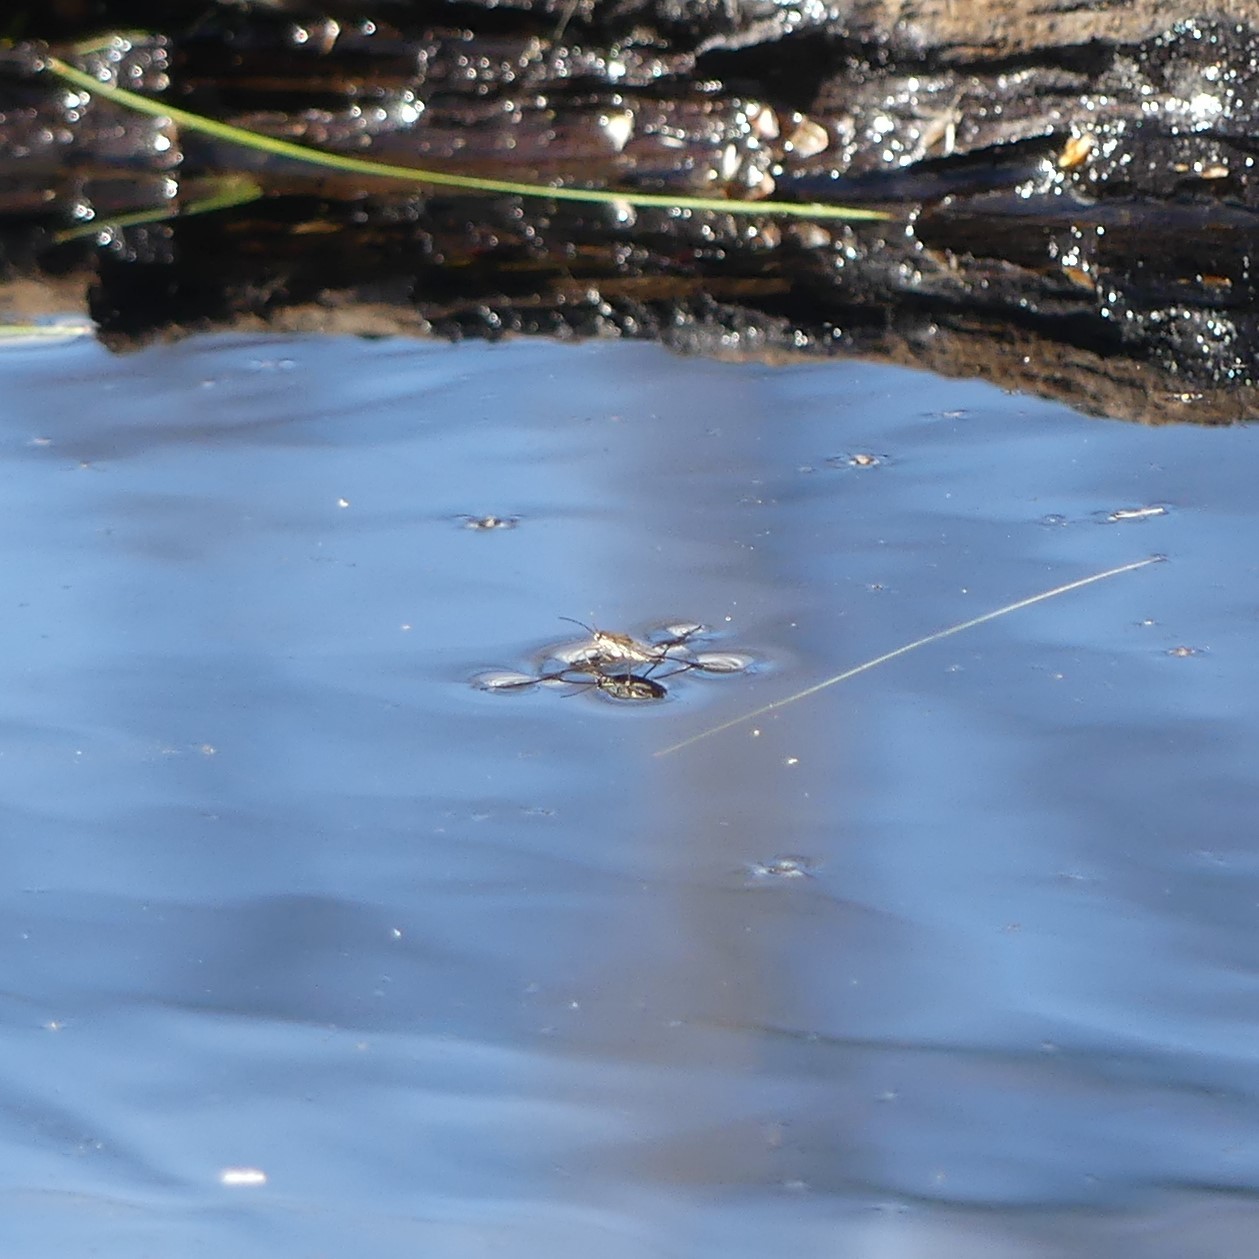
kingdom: Animalia
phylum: Arthropoda
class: Insecta
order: Hemiptera
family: Gerridae
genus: Gerris
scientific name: Gerris
